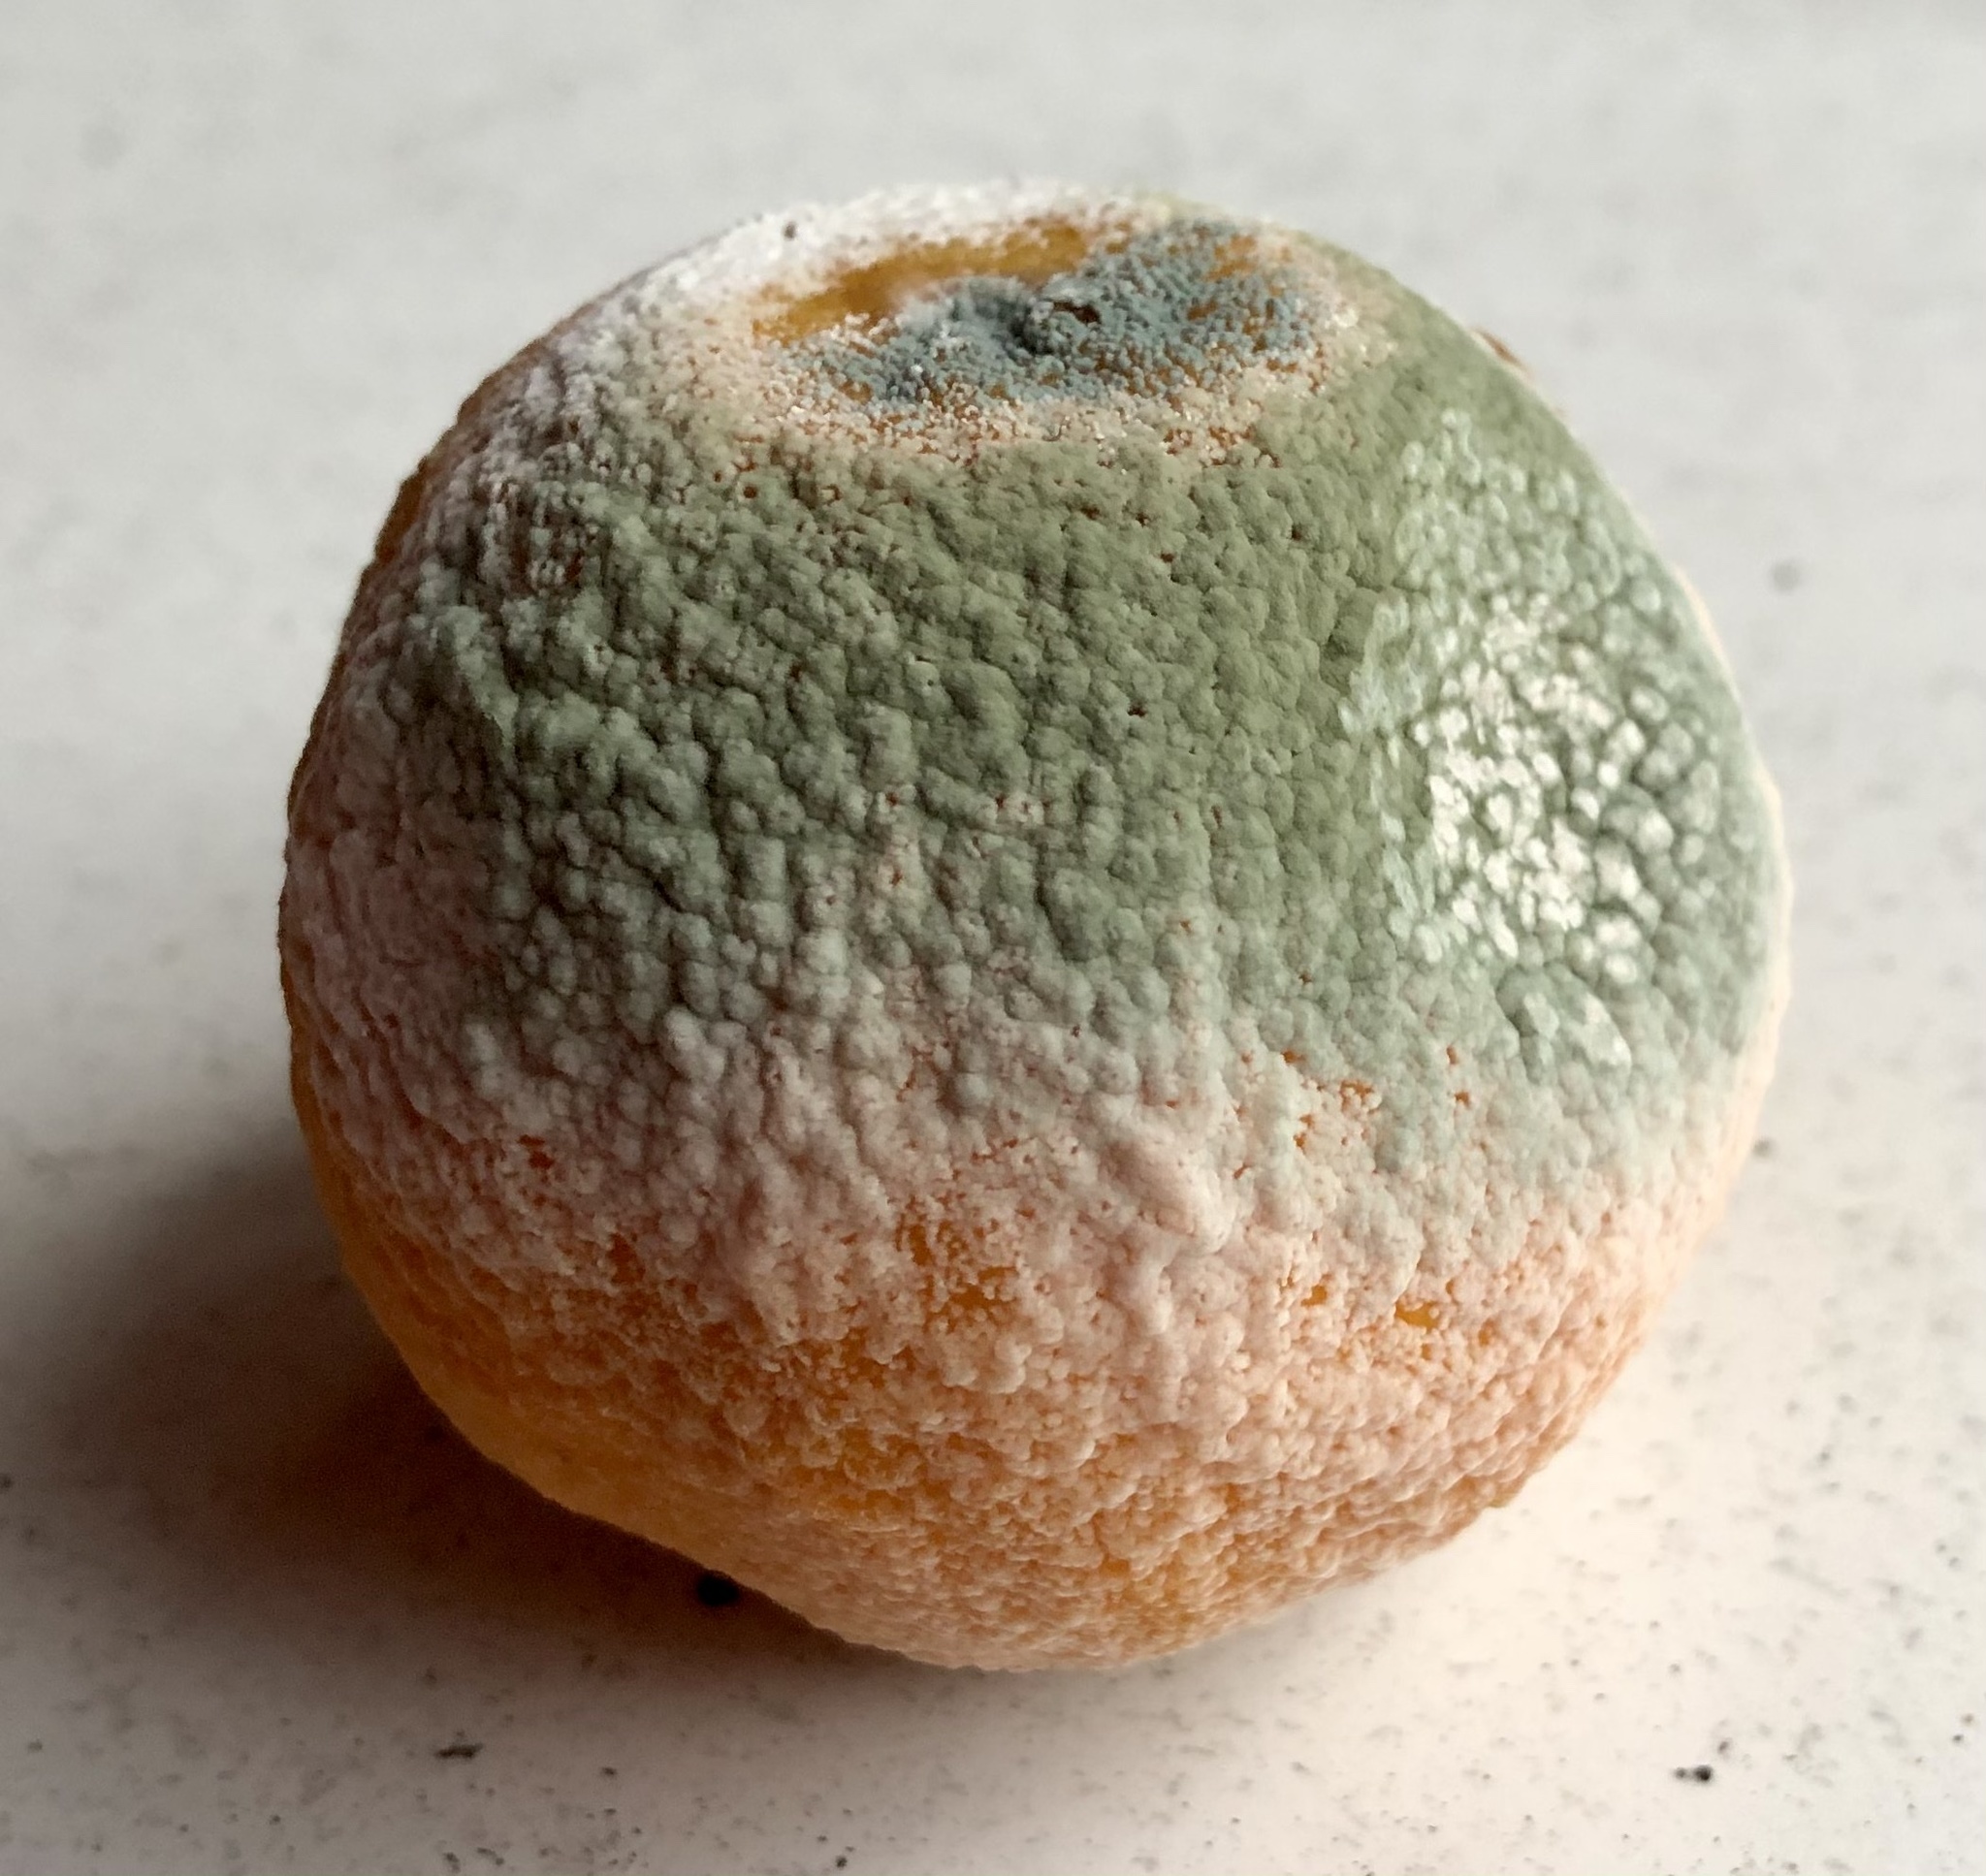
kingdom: Fungi
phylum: Ascomycota
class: Eurotiomycetes
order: Eurotiales
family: Aspergillaceae
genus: Penicillium
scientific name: Penicillium digitatum
